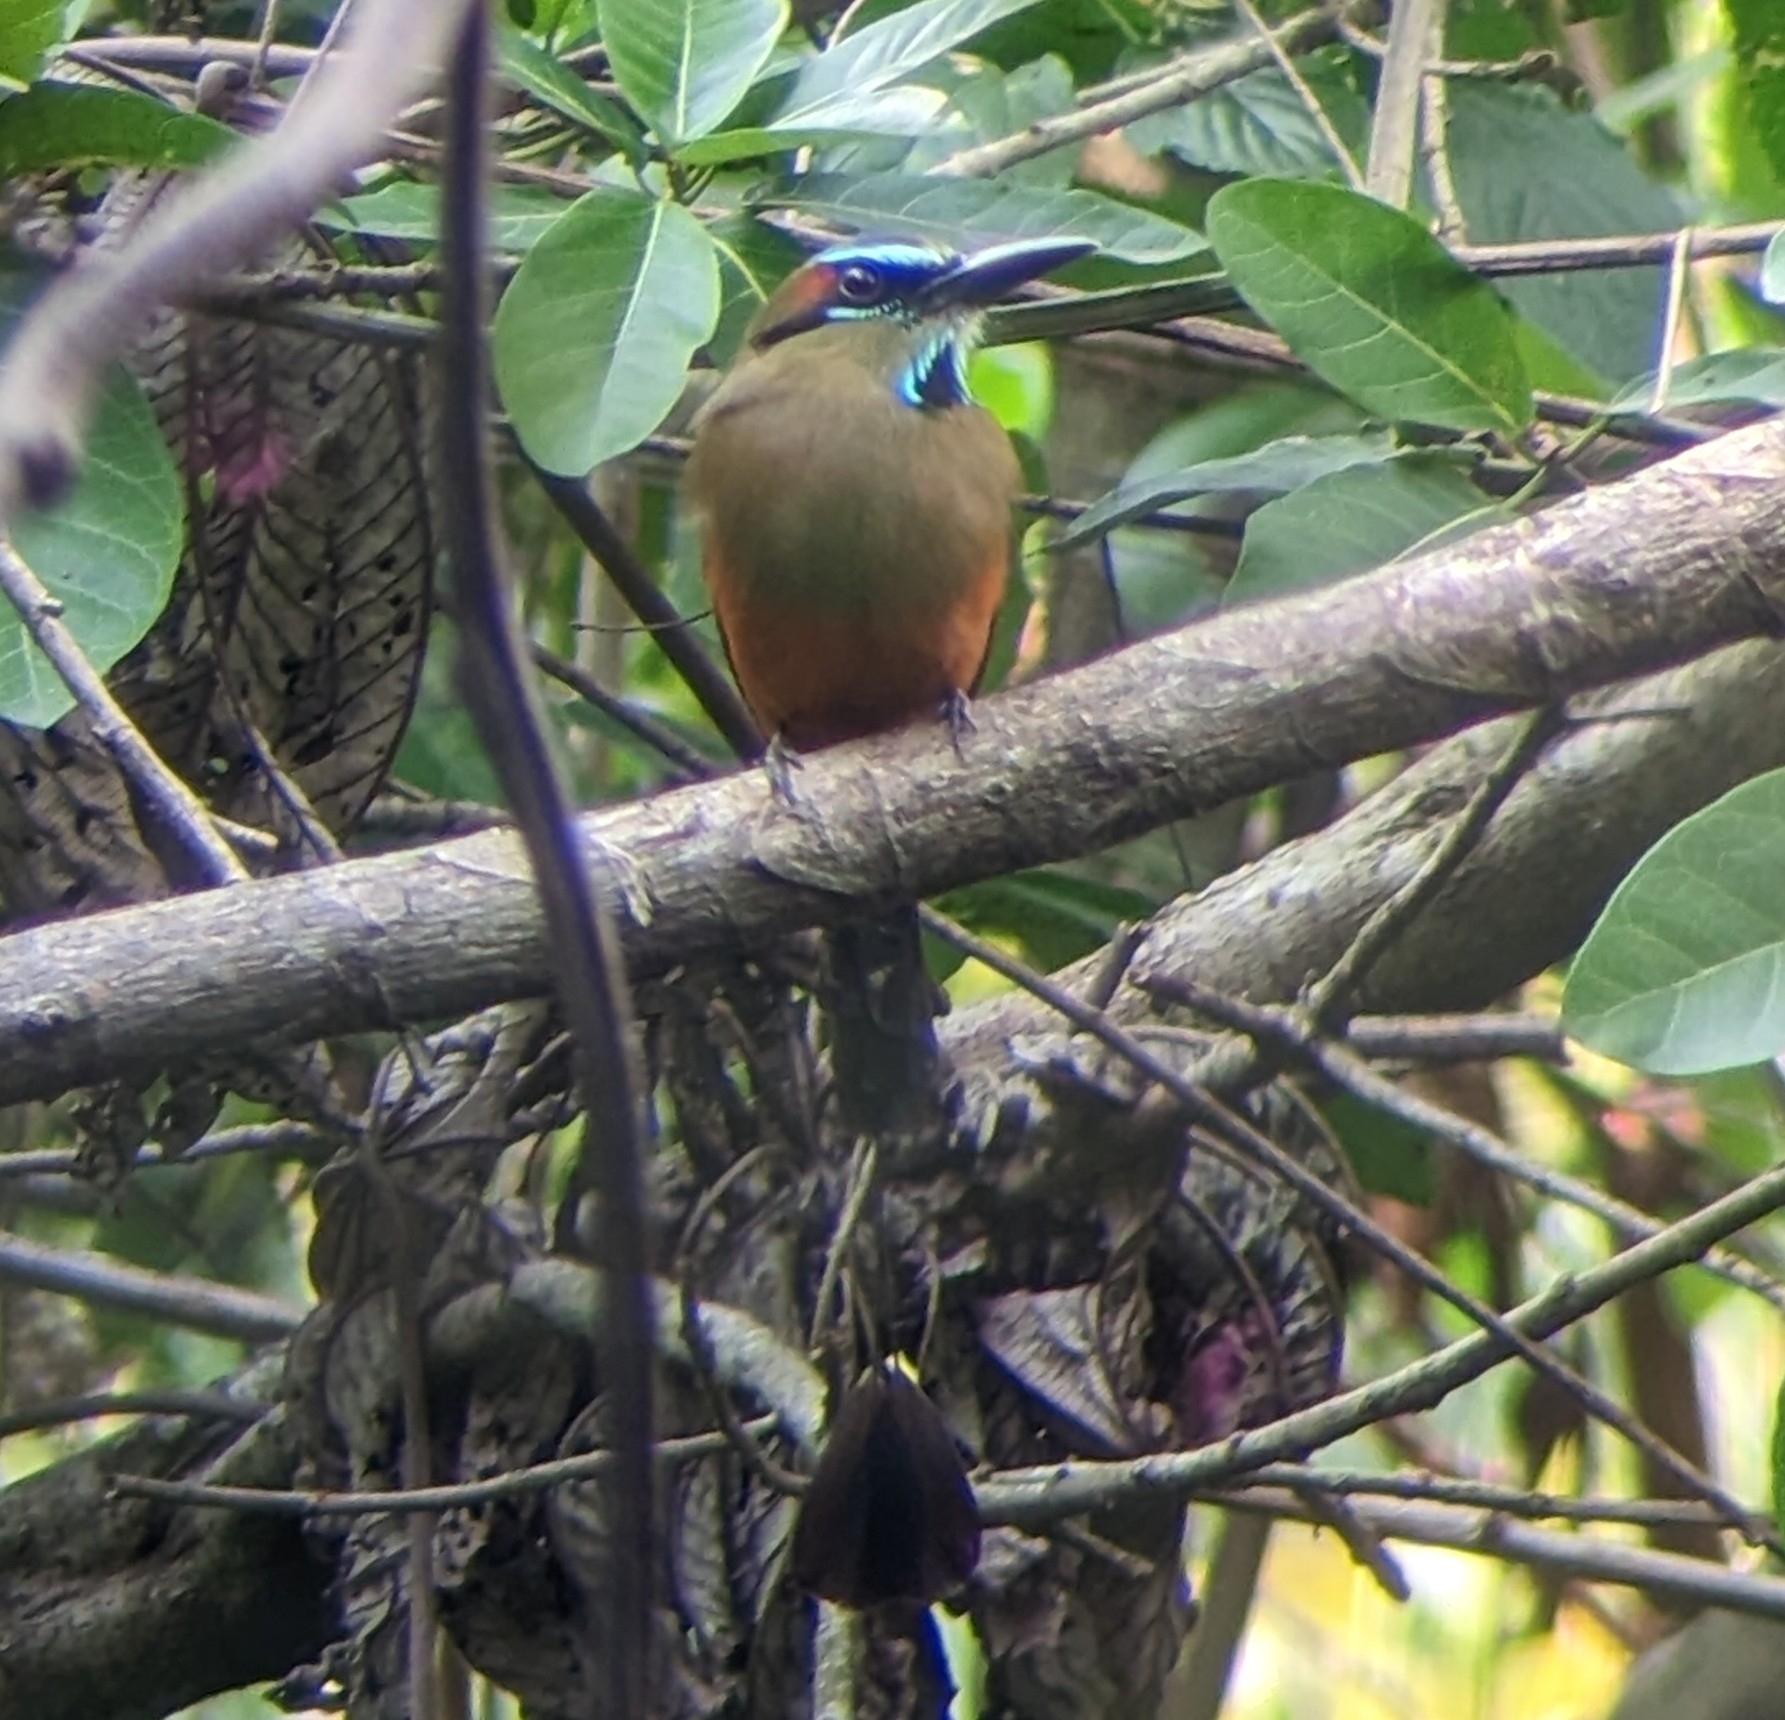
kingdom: Animalia
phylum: Chordata
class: Aves
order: Coraciiformes
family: Momotidae
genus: Eumomota
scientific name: Eumomota superciliosa
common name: Turquoise-browed motmot
